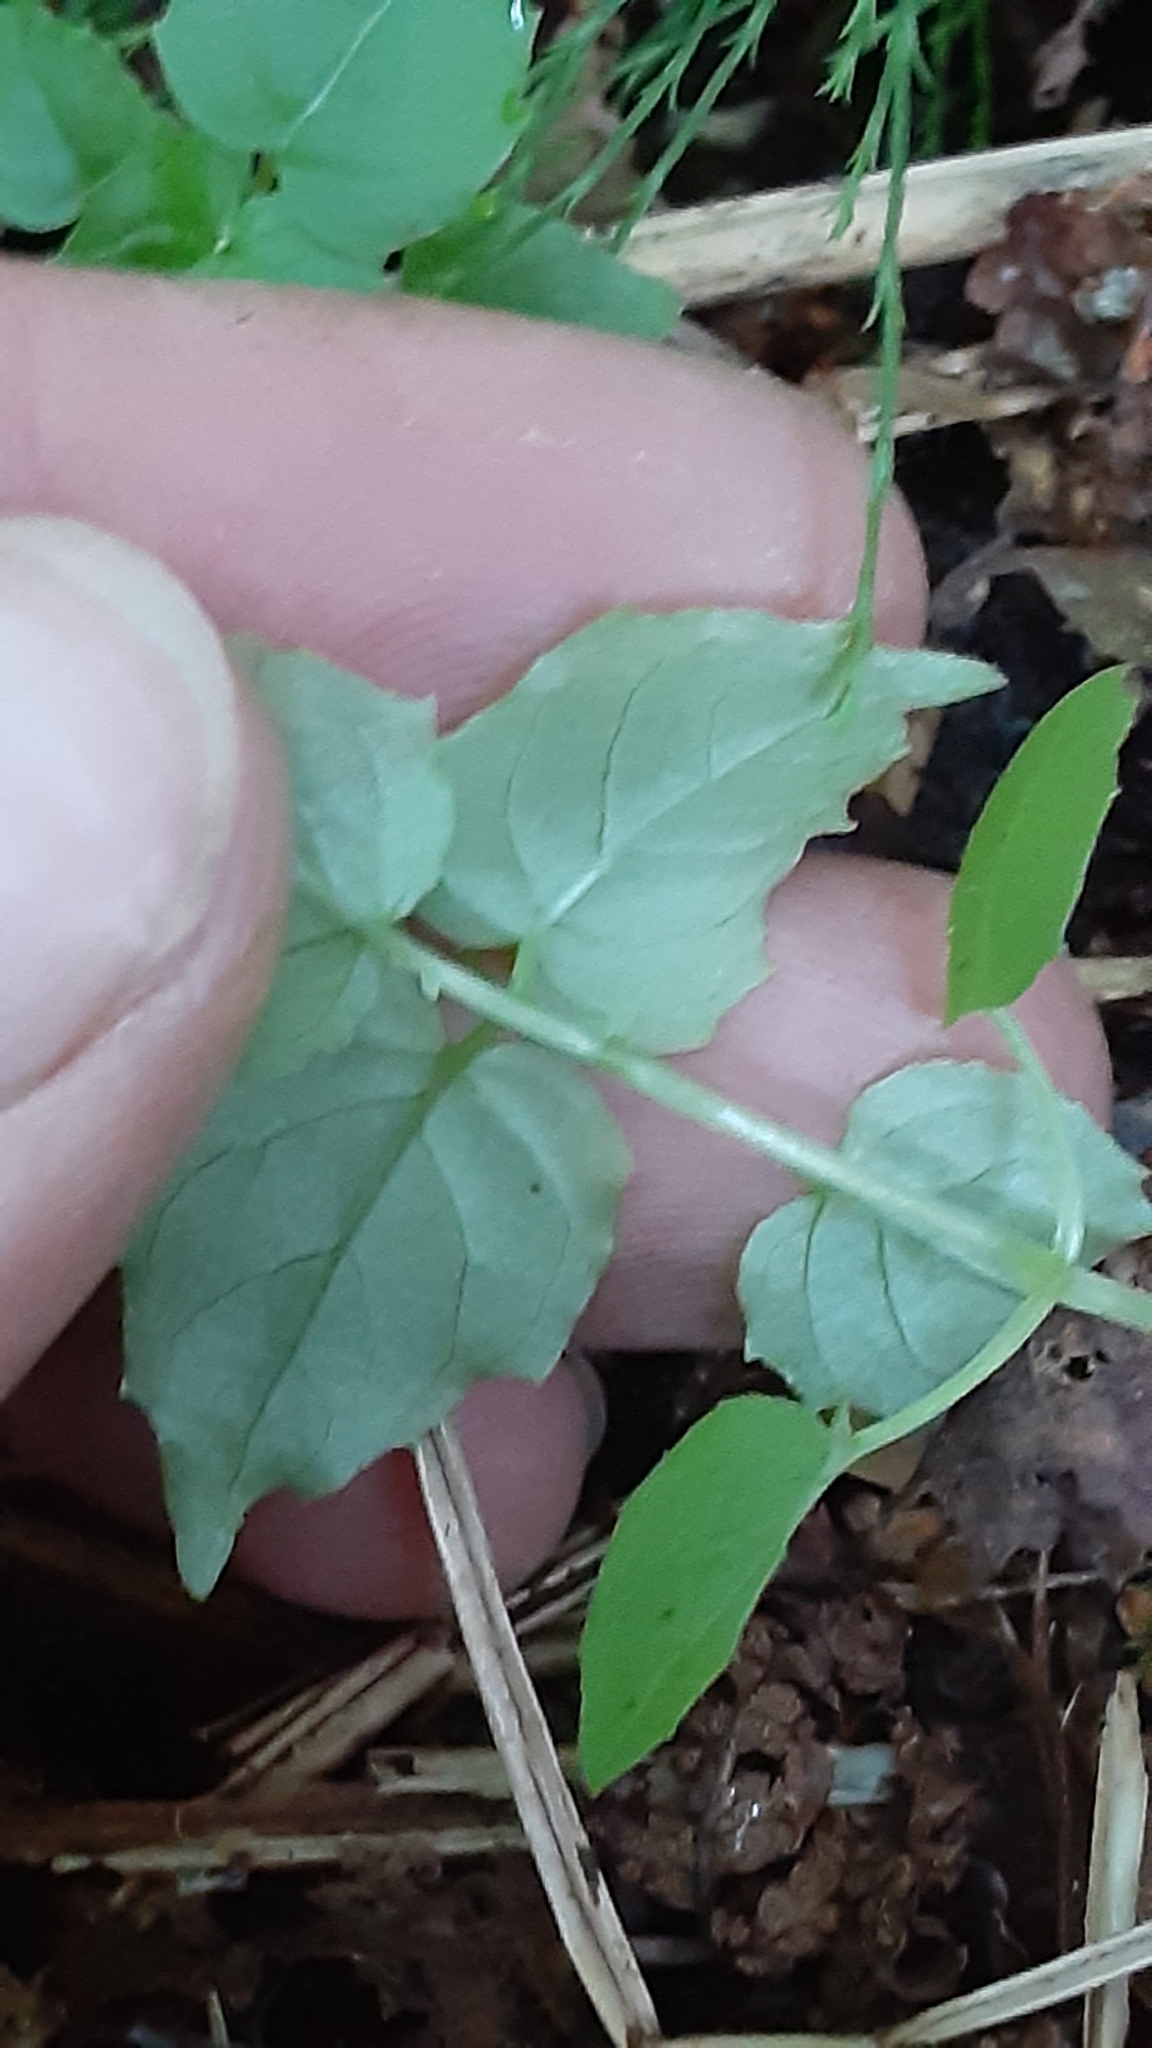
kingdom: Plantae
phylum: Tracheophyta
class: Magnoliopsida
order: Myrtales
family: Onagraceae
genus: Circaea
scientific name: Circaea alpina
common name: Alpine enchanter's-nightshade
